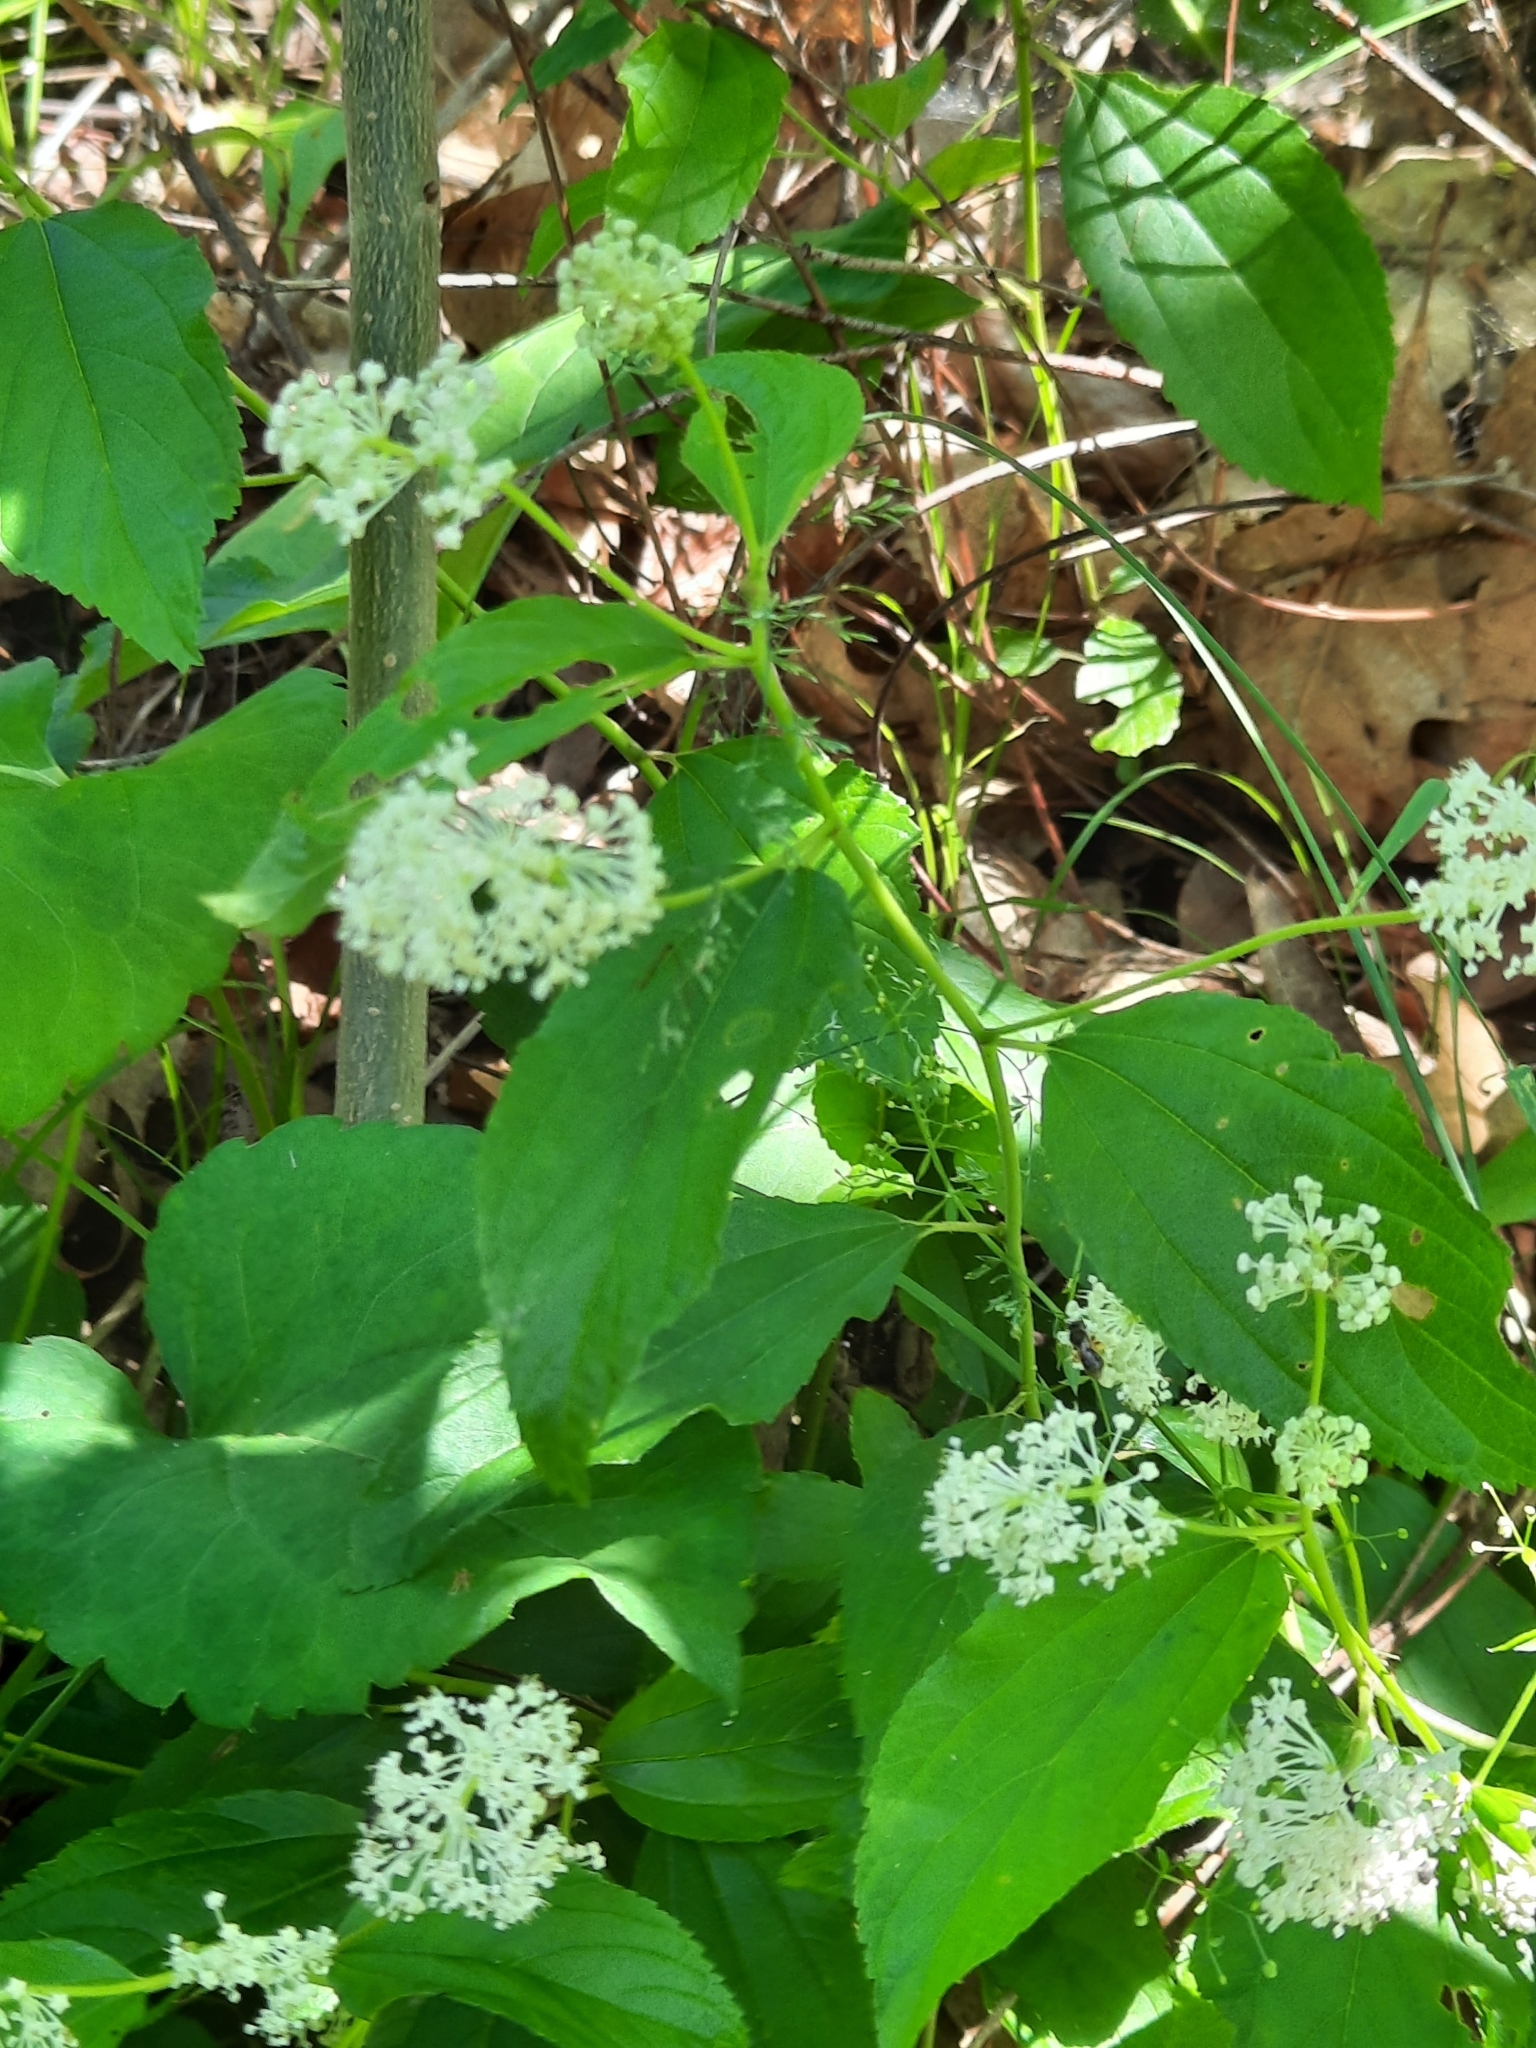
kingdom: Plantae
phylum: Tracheophyta
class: Magnoliopsida
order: Rosales
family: Rhamnaceae
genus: Ceanothus
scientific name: Ceanothus americanus
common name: Redroot
